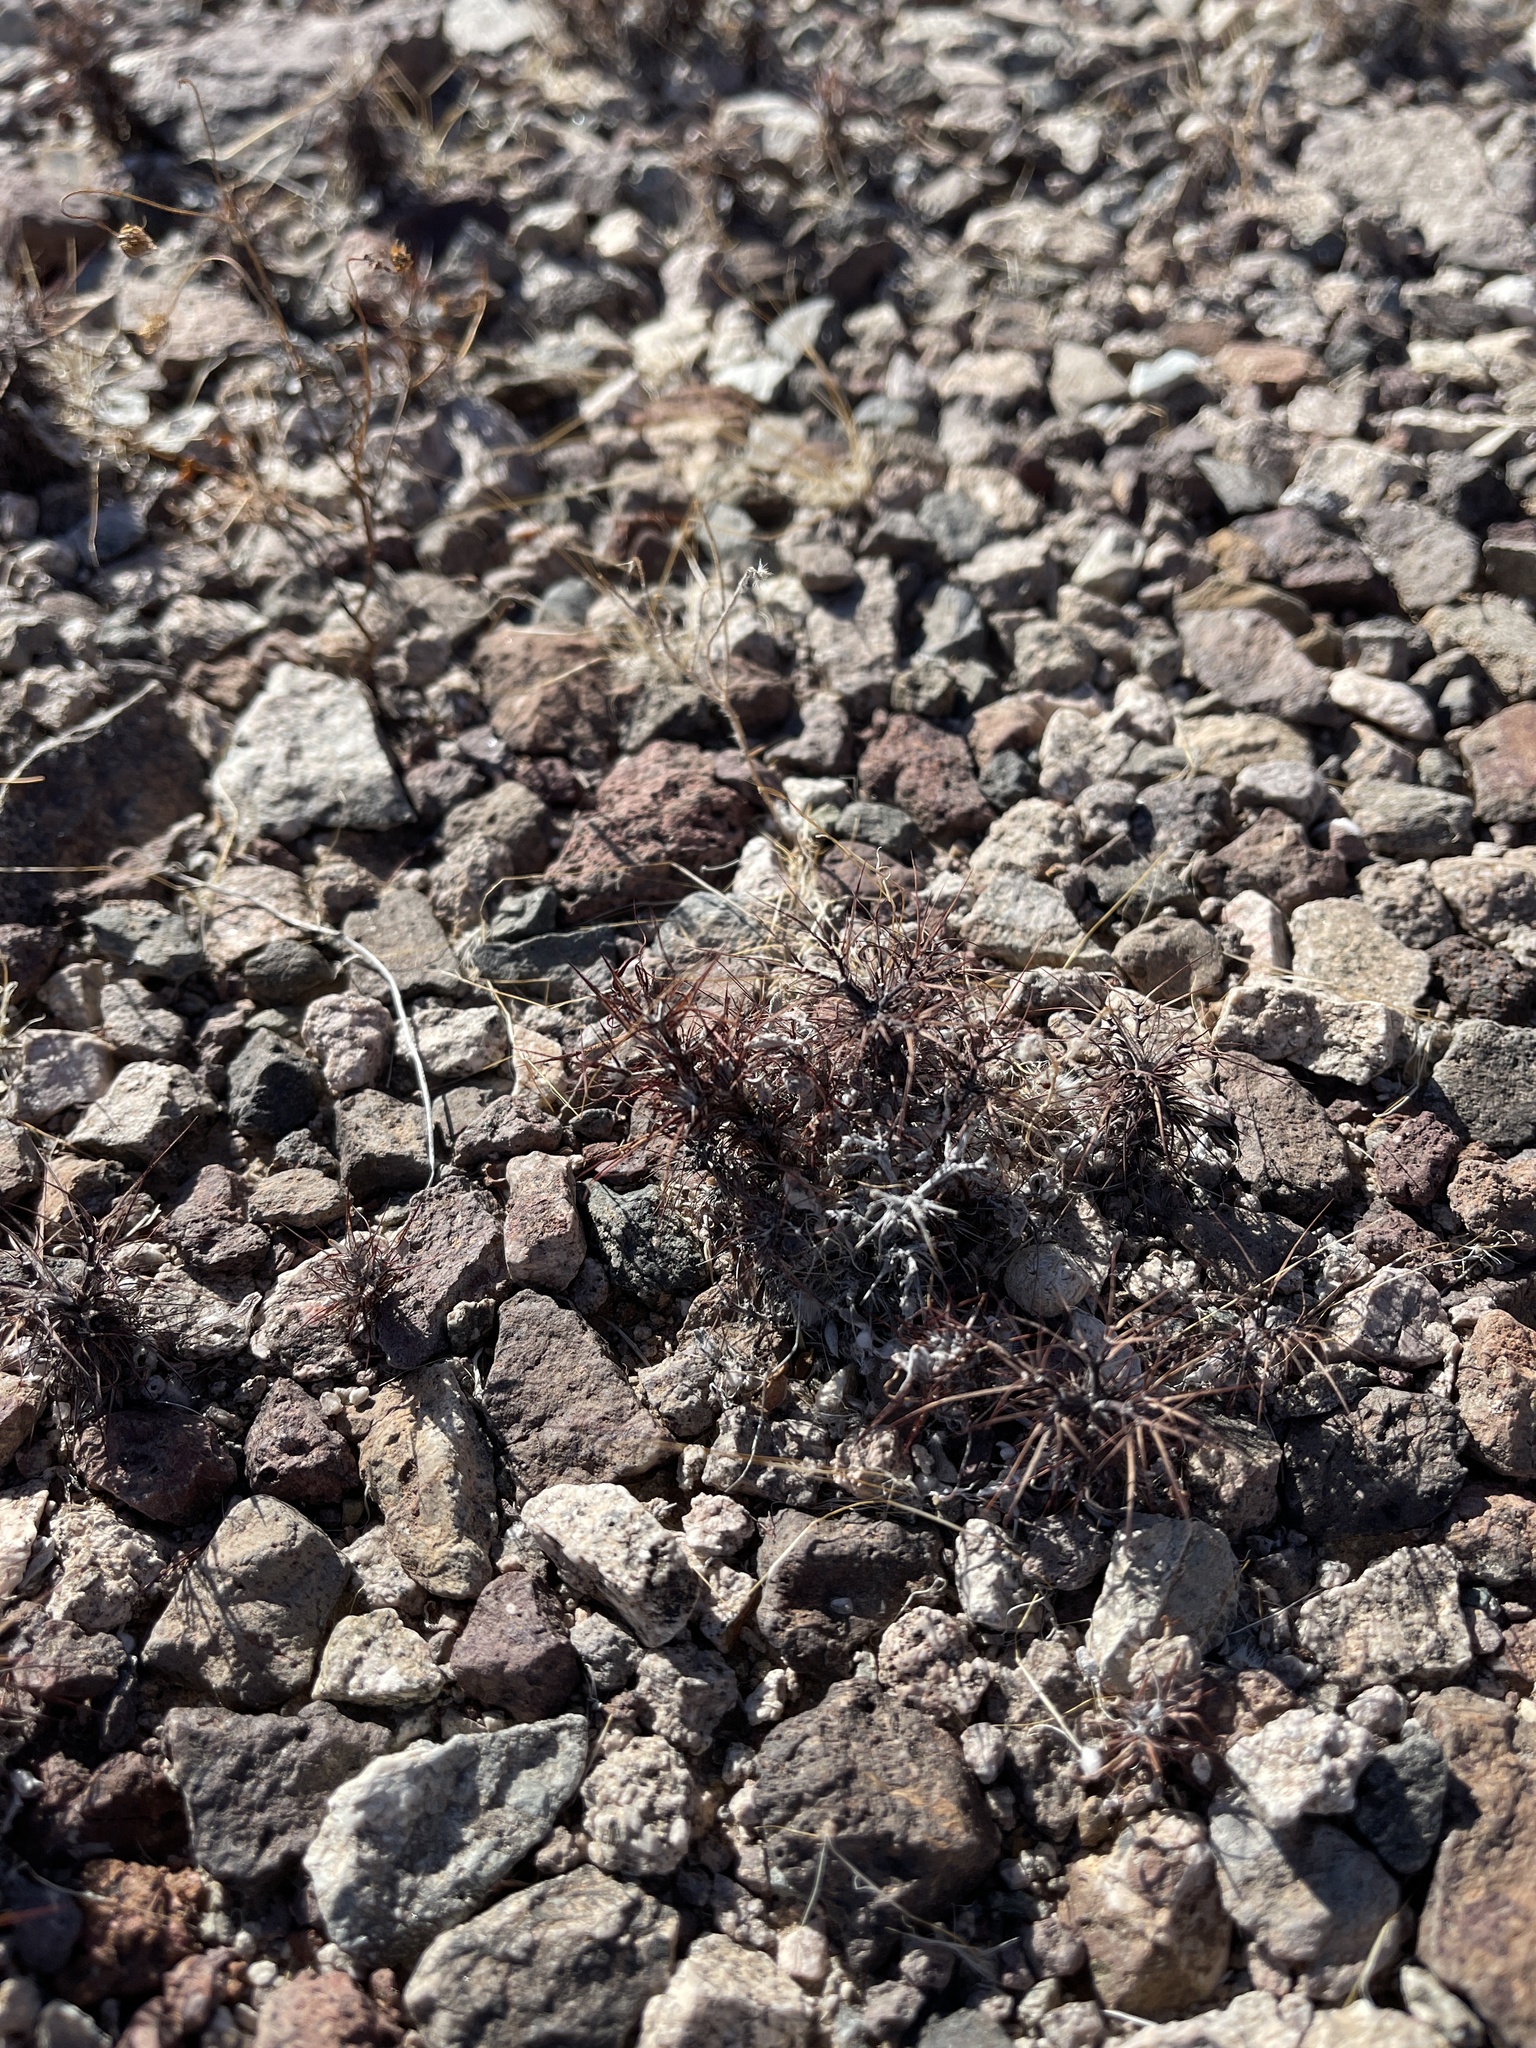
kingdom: Plantae
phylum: Tracheophyta
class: Magnoliopsida
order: Caryophyllales
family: Polygonaceae
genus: Chorizanthe
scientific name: Chorizanthe rigida
